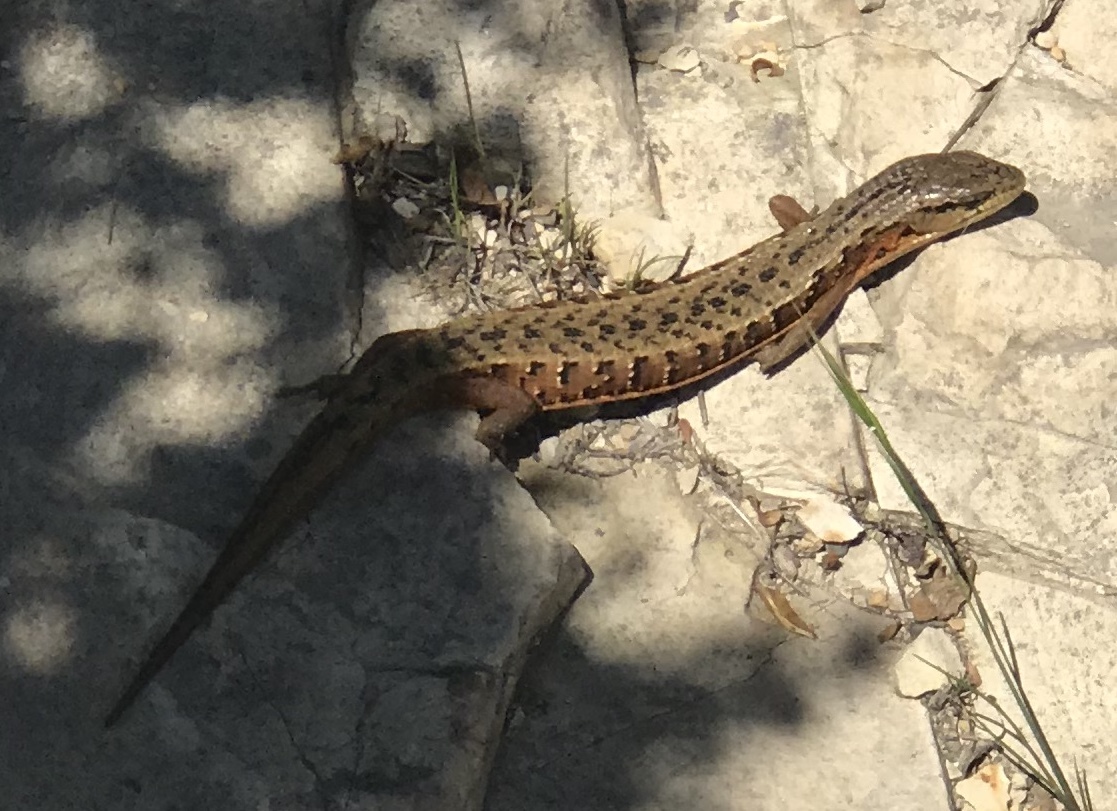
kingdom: Animalia
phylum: Chordata
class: Squamata
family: Anguidae
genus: Elgaria
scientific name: Elgaria coerulea
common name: Northern alligator lizard
